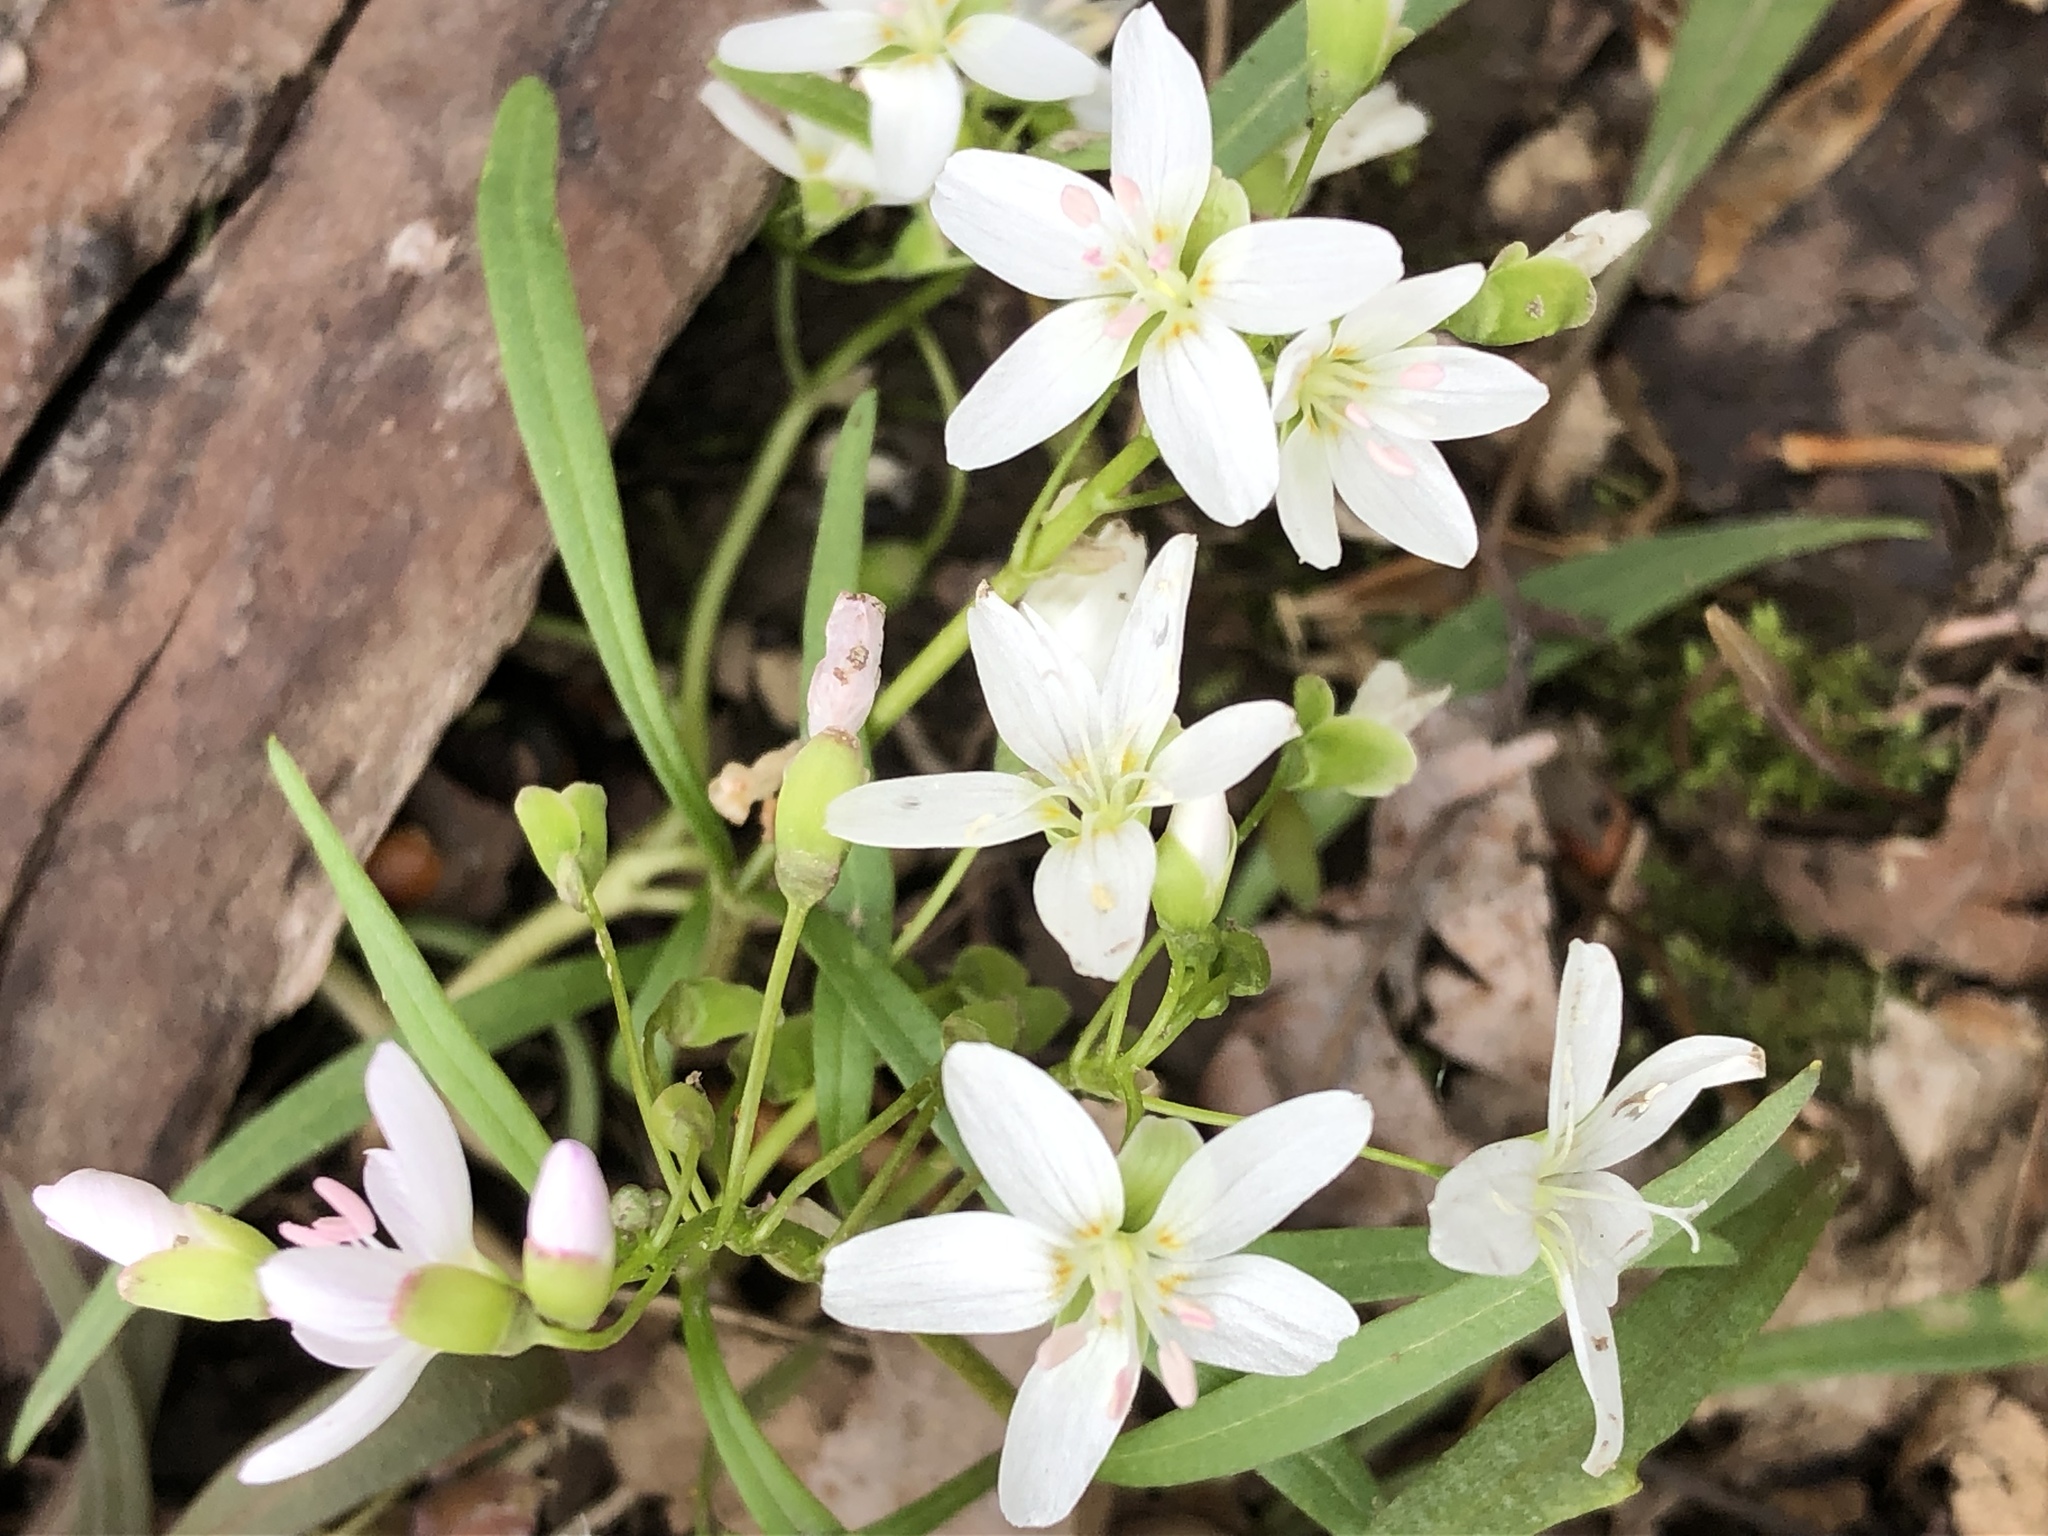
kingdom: Plantae
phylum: Tracheophyta
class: Magnoliopsida
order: Caryophyllales
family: Montiaceae
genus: Claytonia
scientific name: Claytonia virginica
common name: Virginia springbeauty
